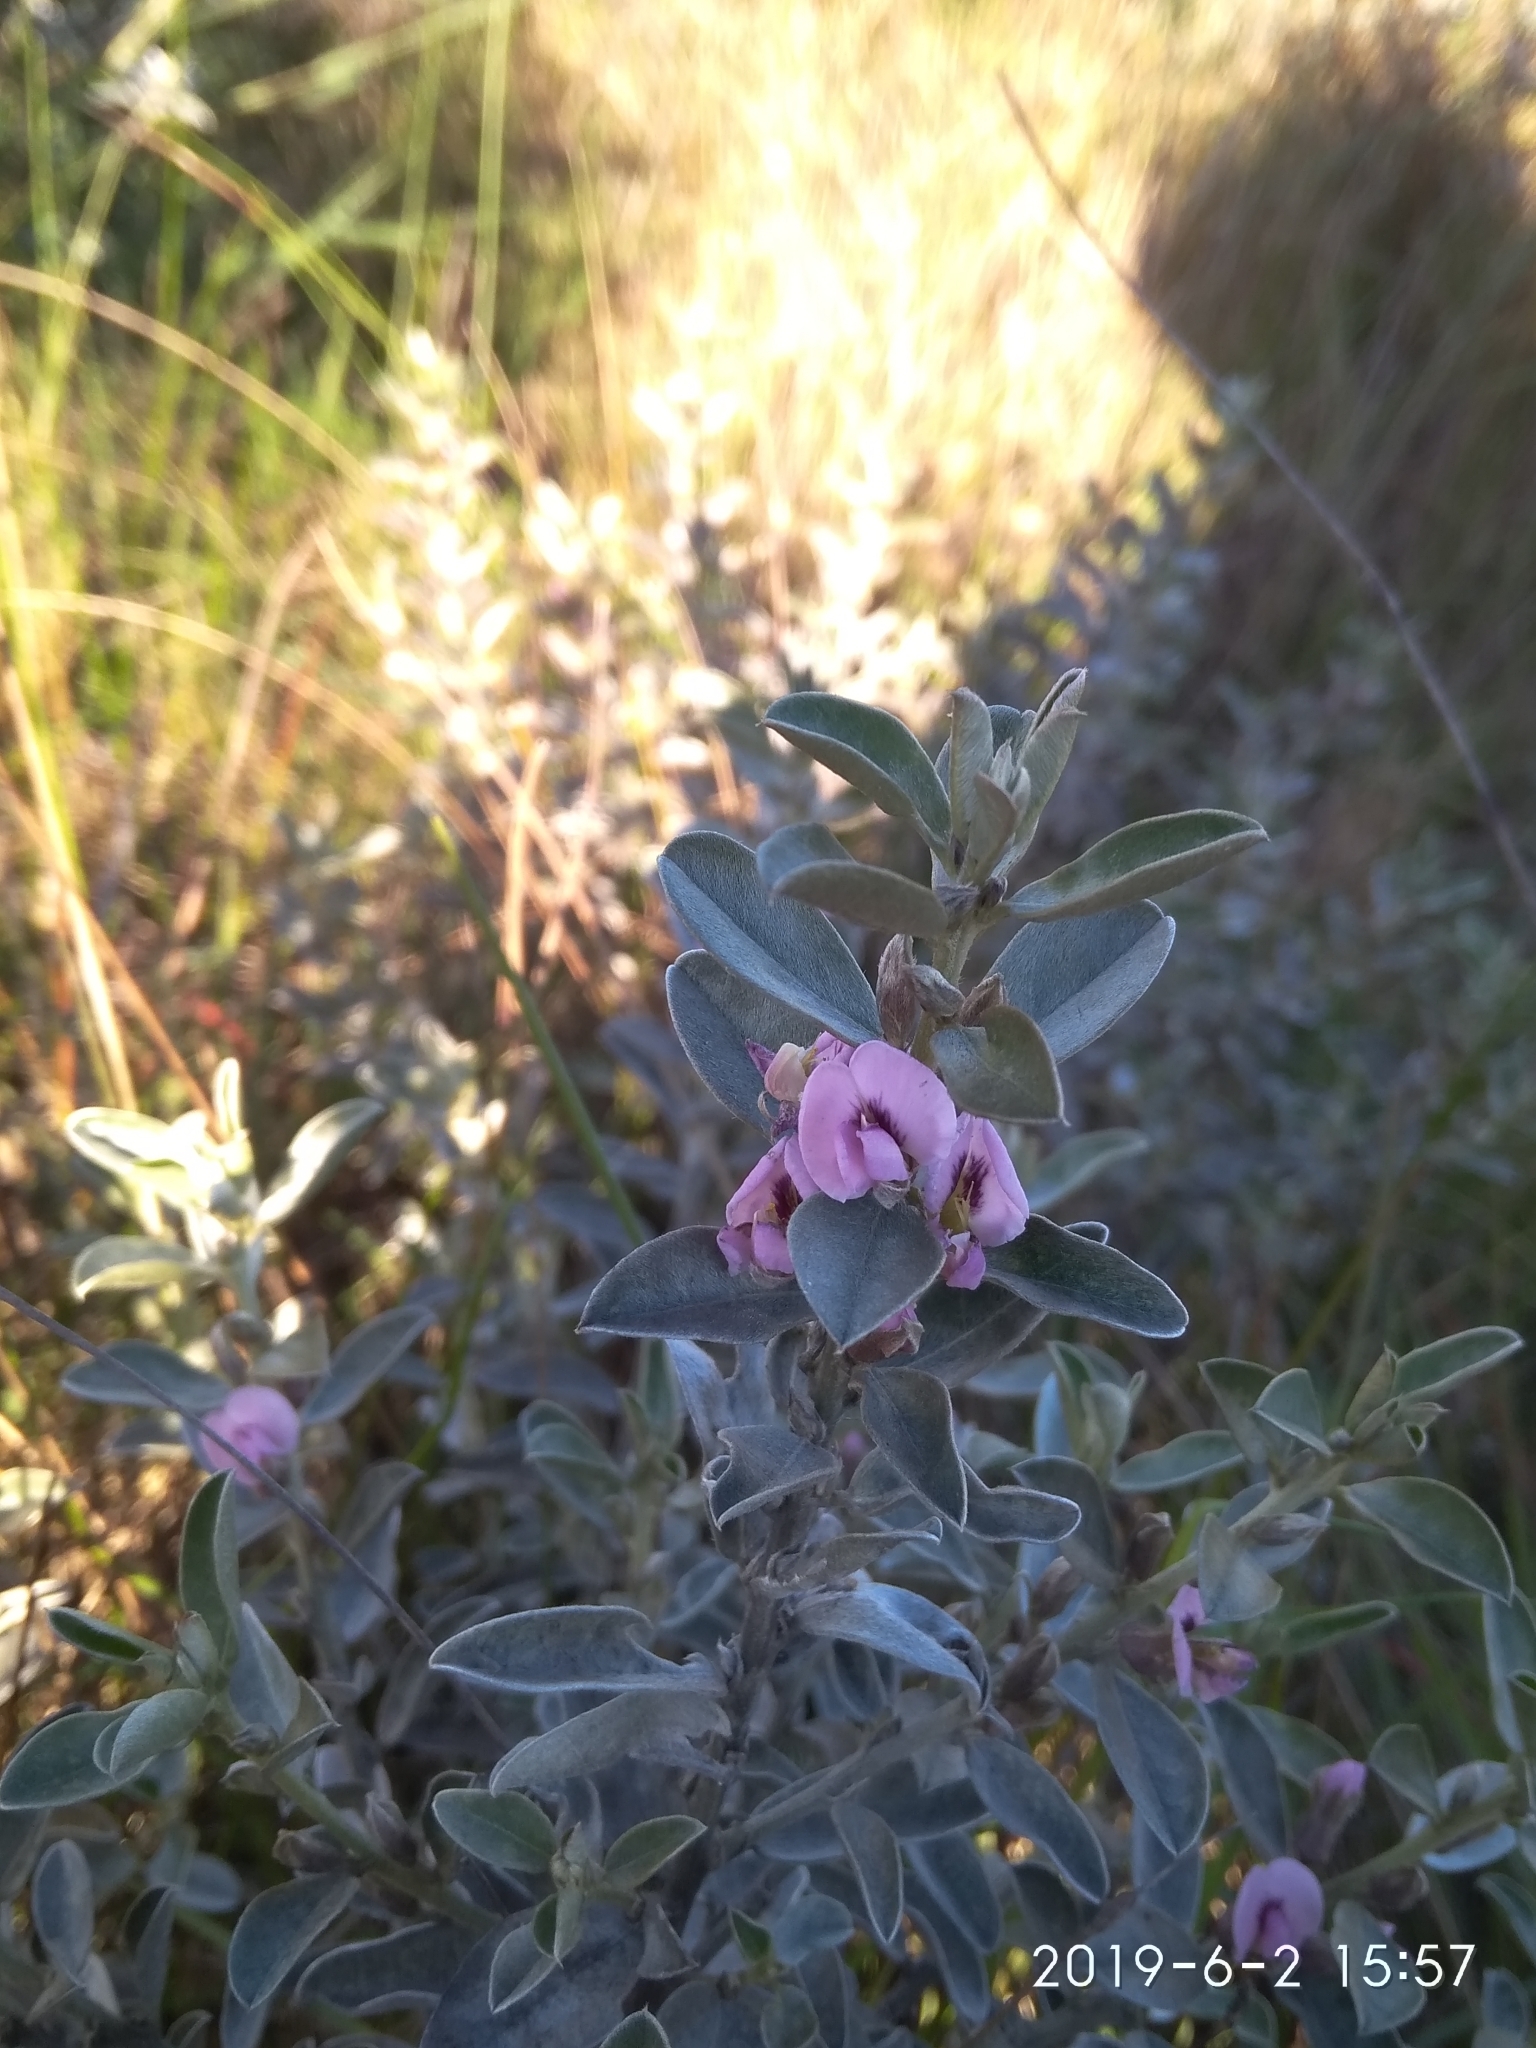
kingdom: Plantae
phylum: Tracheophyta
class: Magnoliopsida
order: Fabales
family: Fabaceae
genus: Podalyria
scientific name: Podalyria sericea
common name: Silver podalyria
